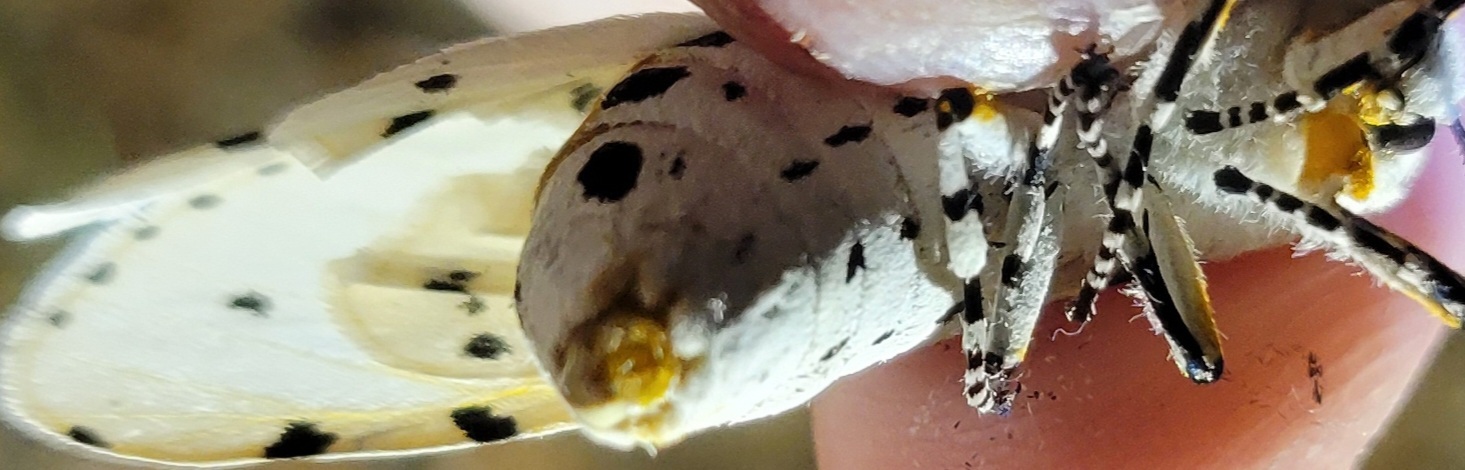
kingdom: Animalia
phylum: Arthropoda
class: Insecta
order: Lepidoptera
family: Erebidae
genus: Estigmene
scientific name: Estigmene acrea
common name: Salt marsh moth
